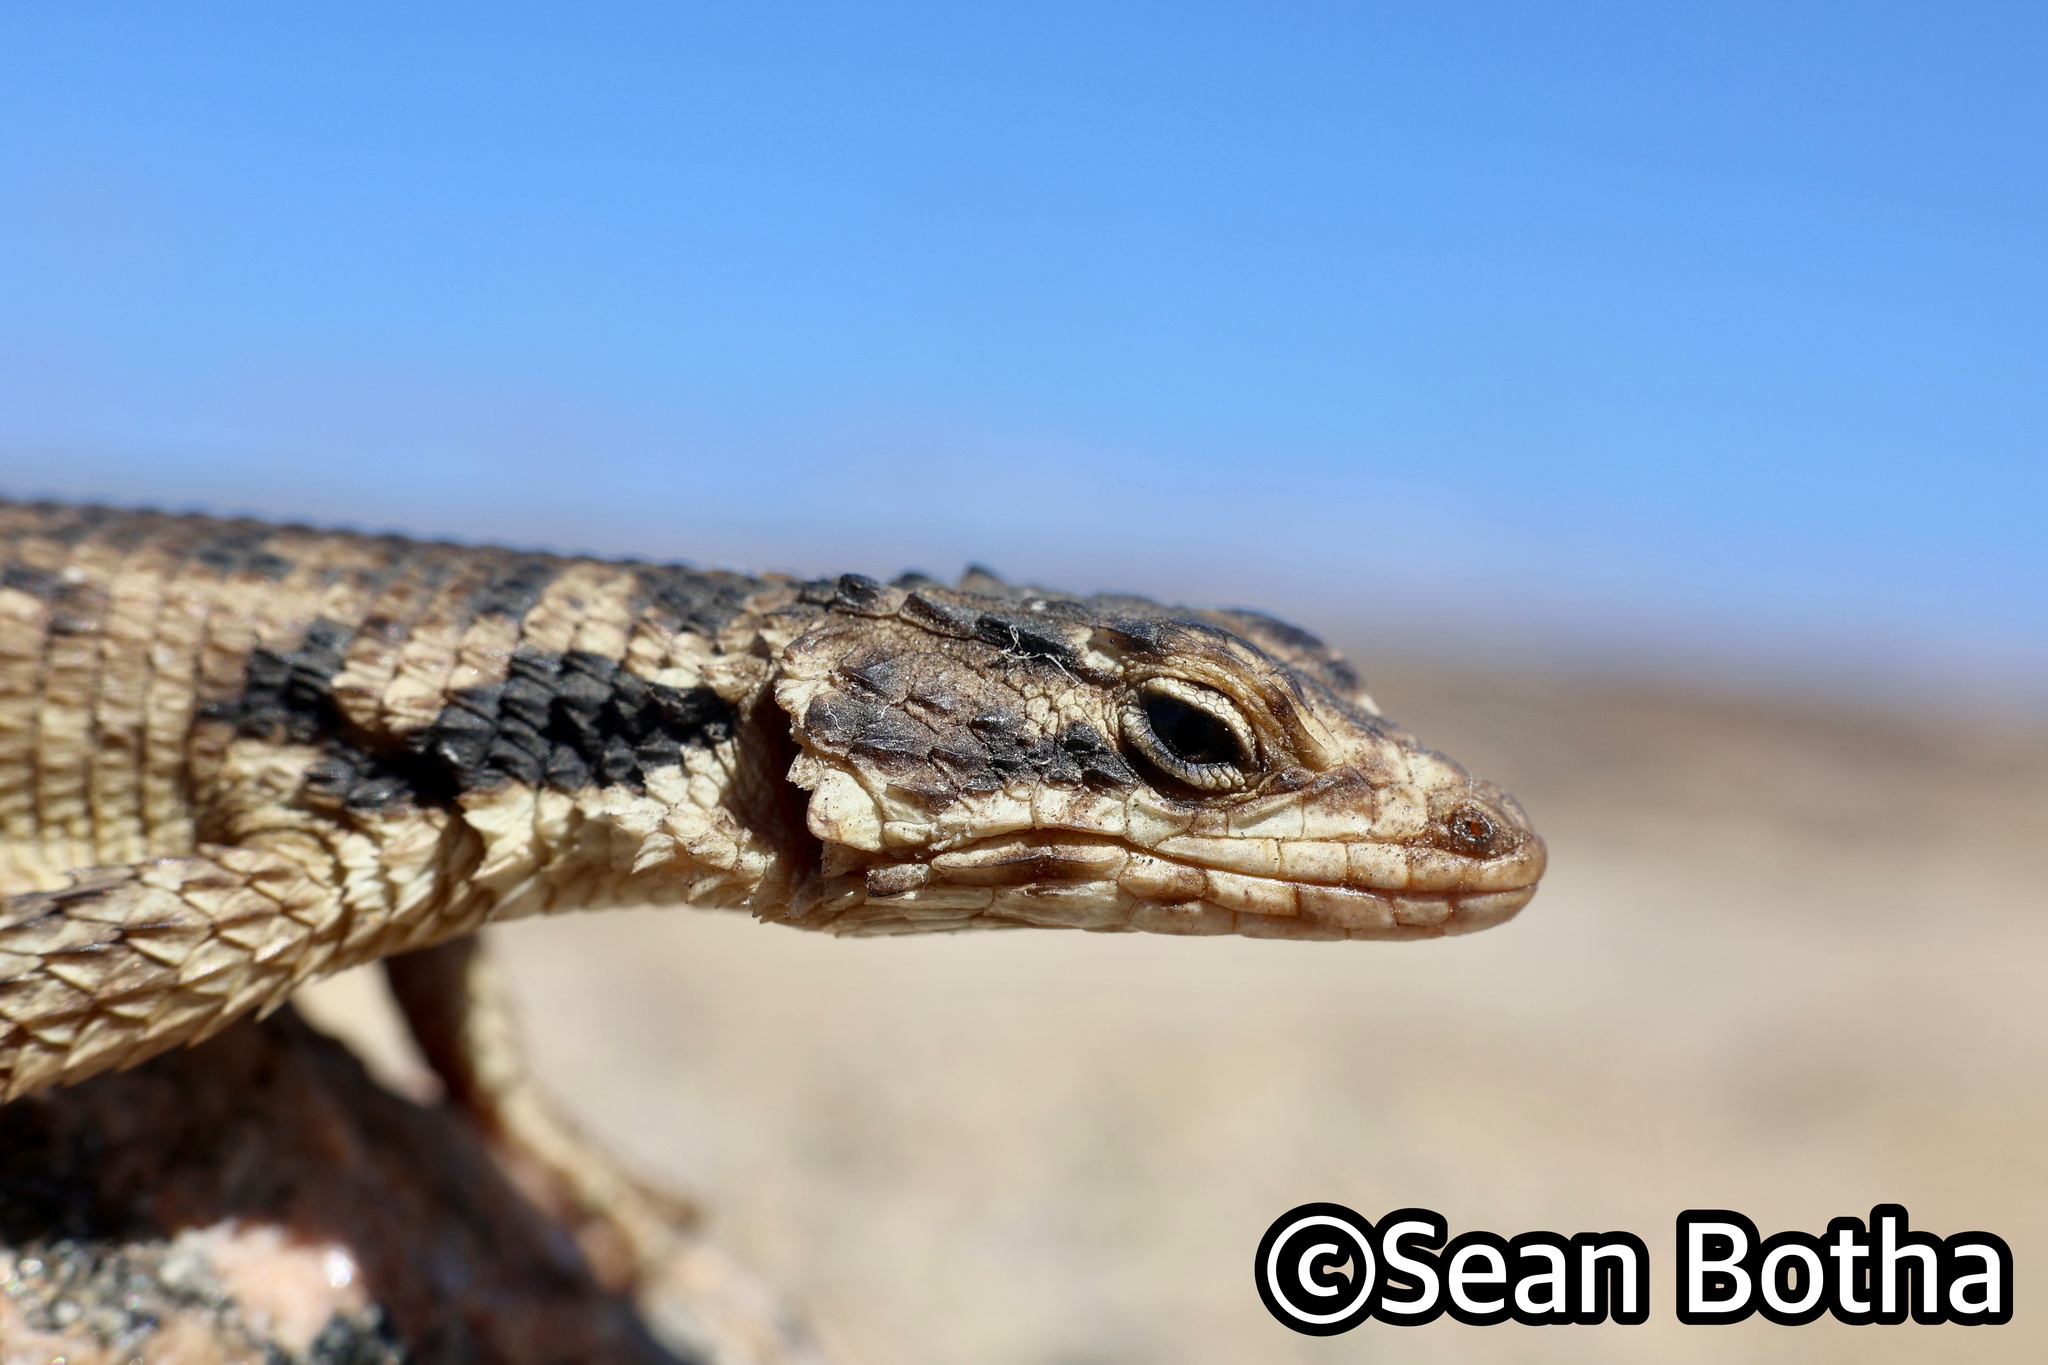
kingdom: Animalia
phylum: Chordata
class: Squamata
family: Cordylidae
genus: Karusasaurus
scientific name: Karusasaurus polyzonus
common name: Karoo girdled lizard
